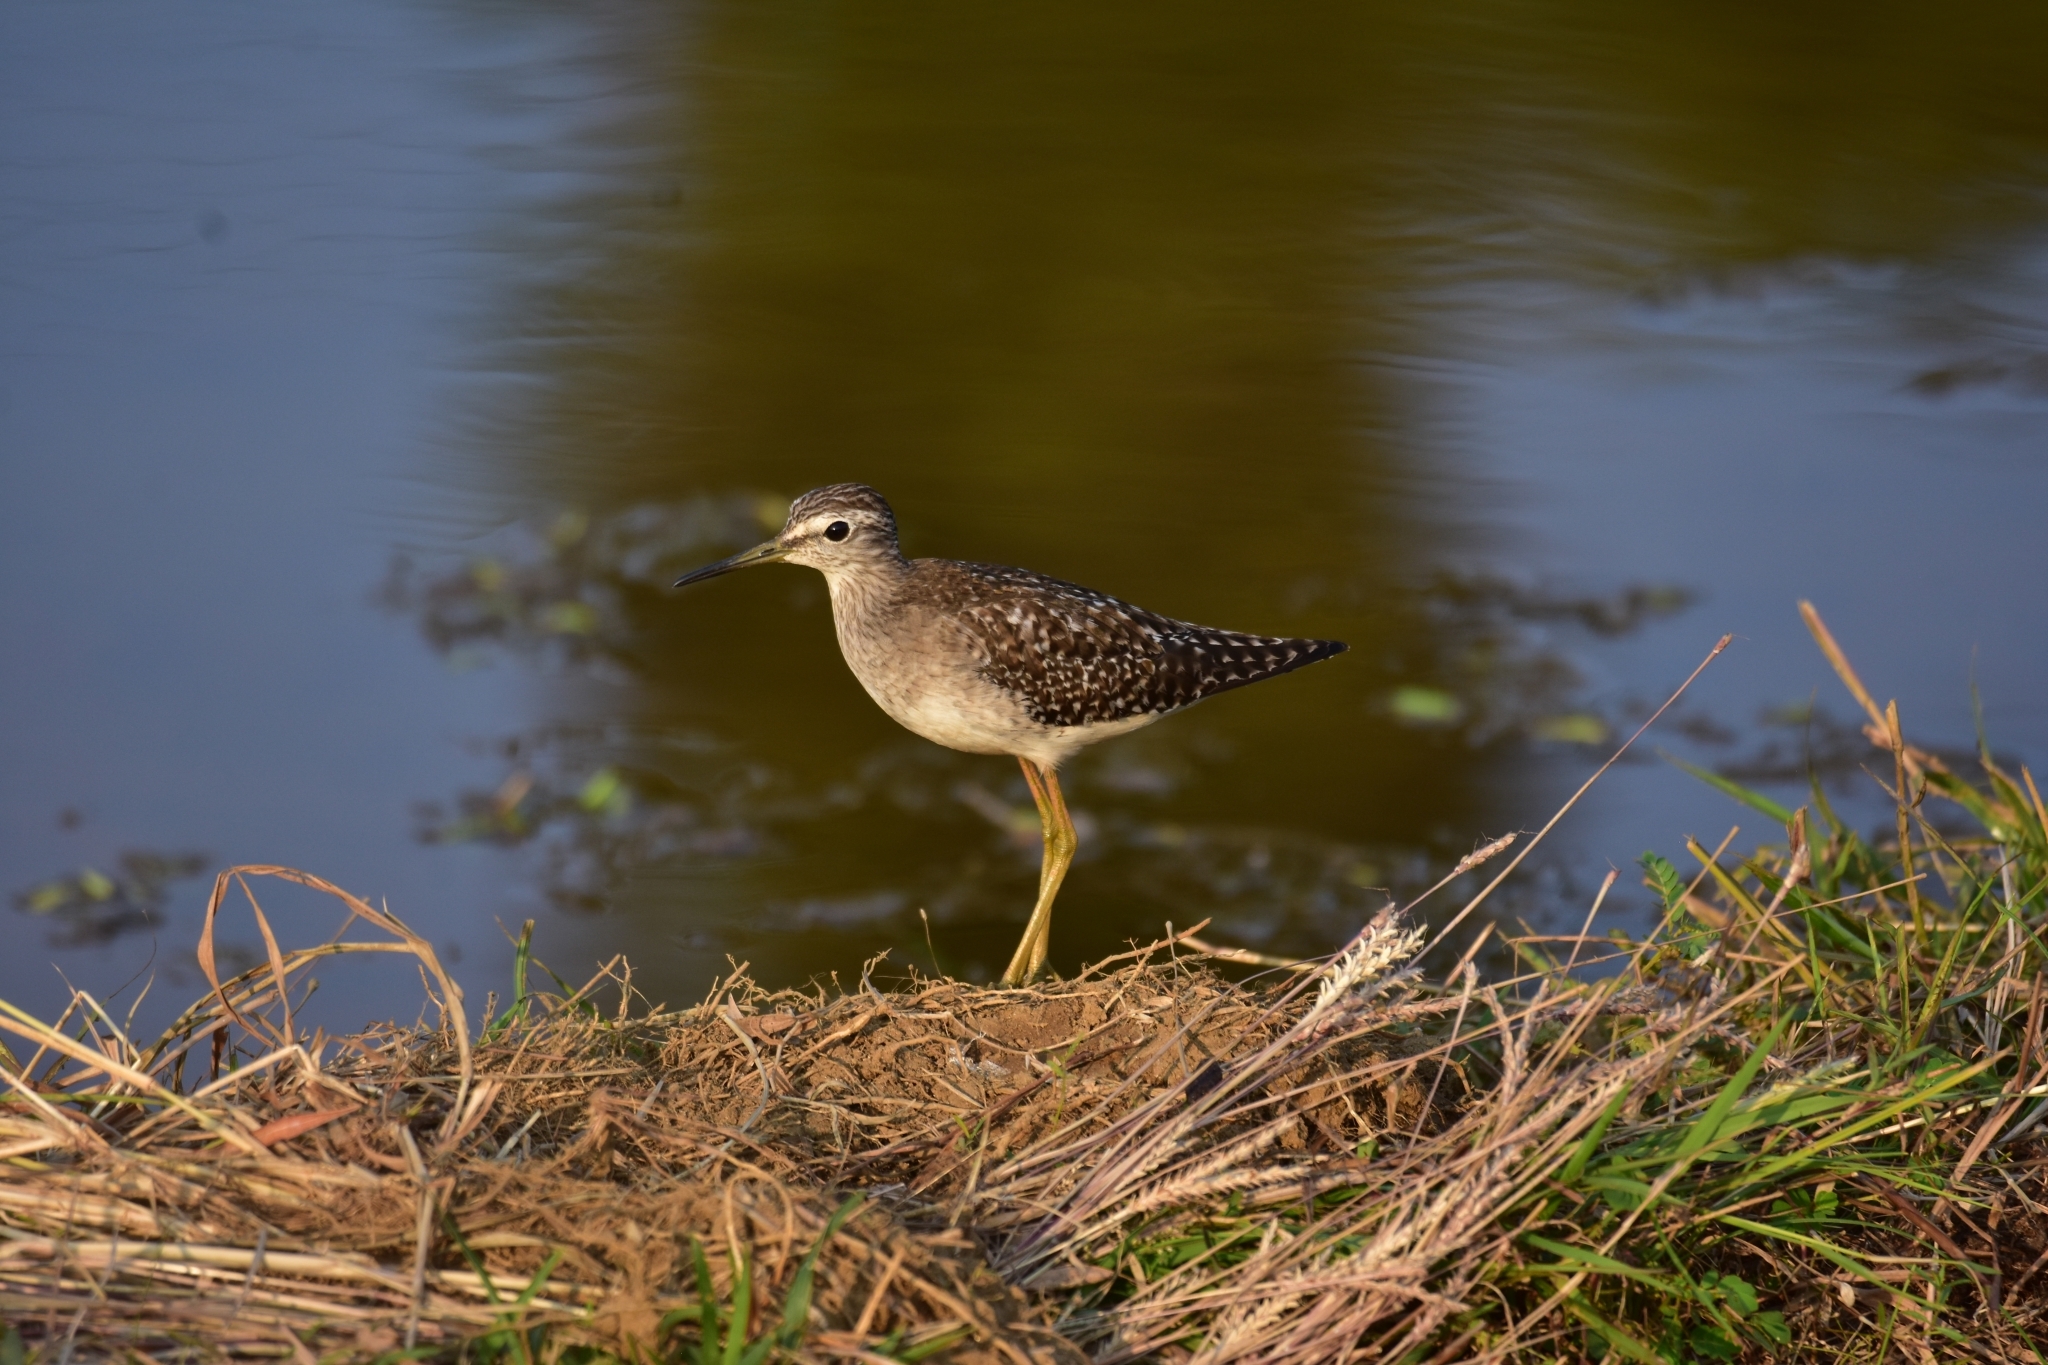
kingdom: Animalia
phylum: Chordata
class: Aves
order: Charadriiformes
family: Scolopacidae
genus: Tringa
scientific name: Tringa glareola
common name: Wood sandpiper
